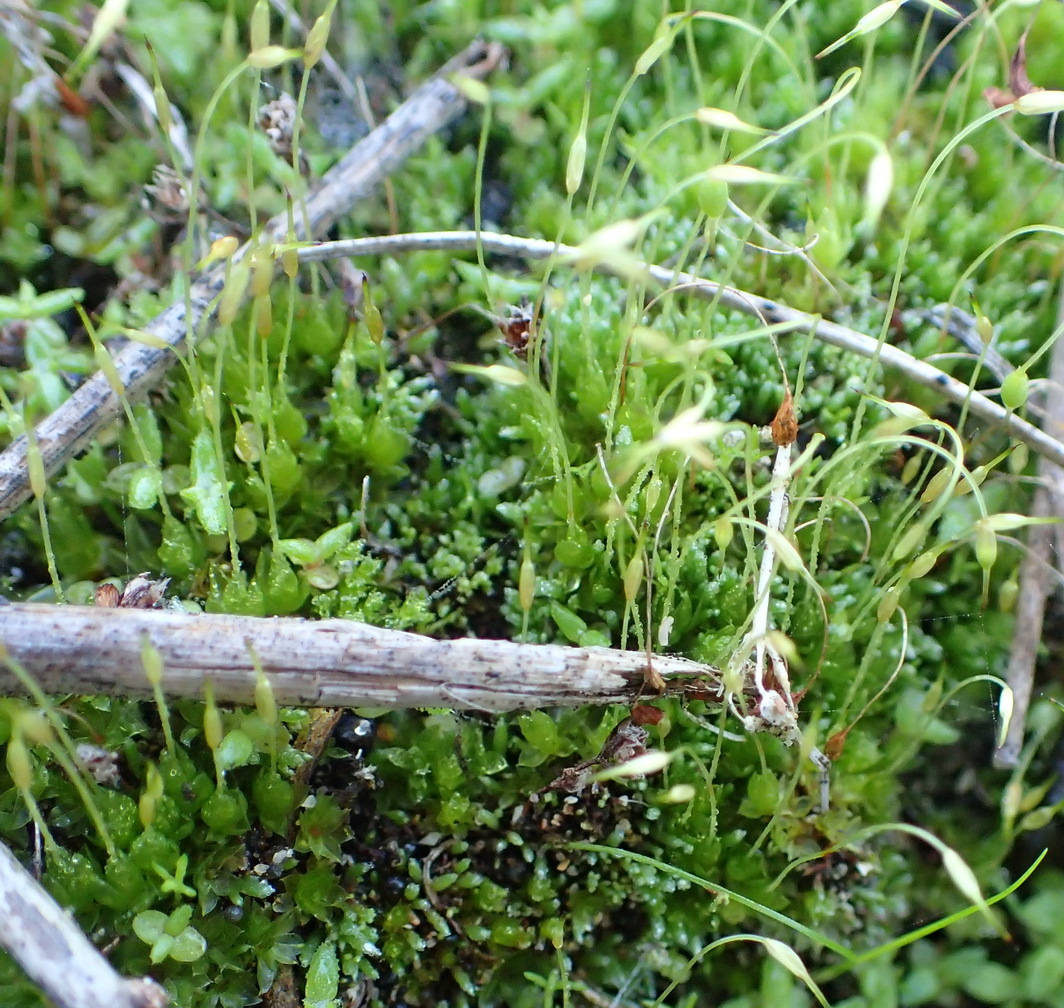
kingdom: Plantae
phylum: Bryophyta
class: Bryopsida
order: Funariales
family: Funariaceae
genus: Funaria
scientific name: Funaria hygrometrica
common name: Common cord moss
